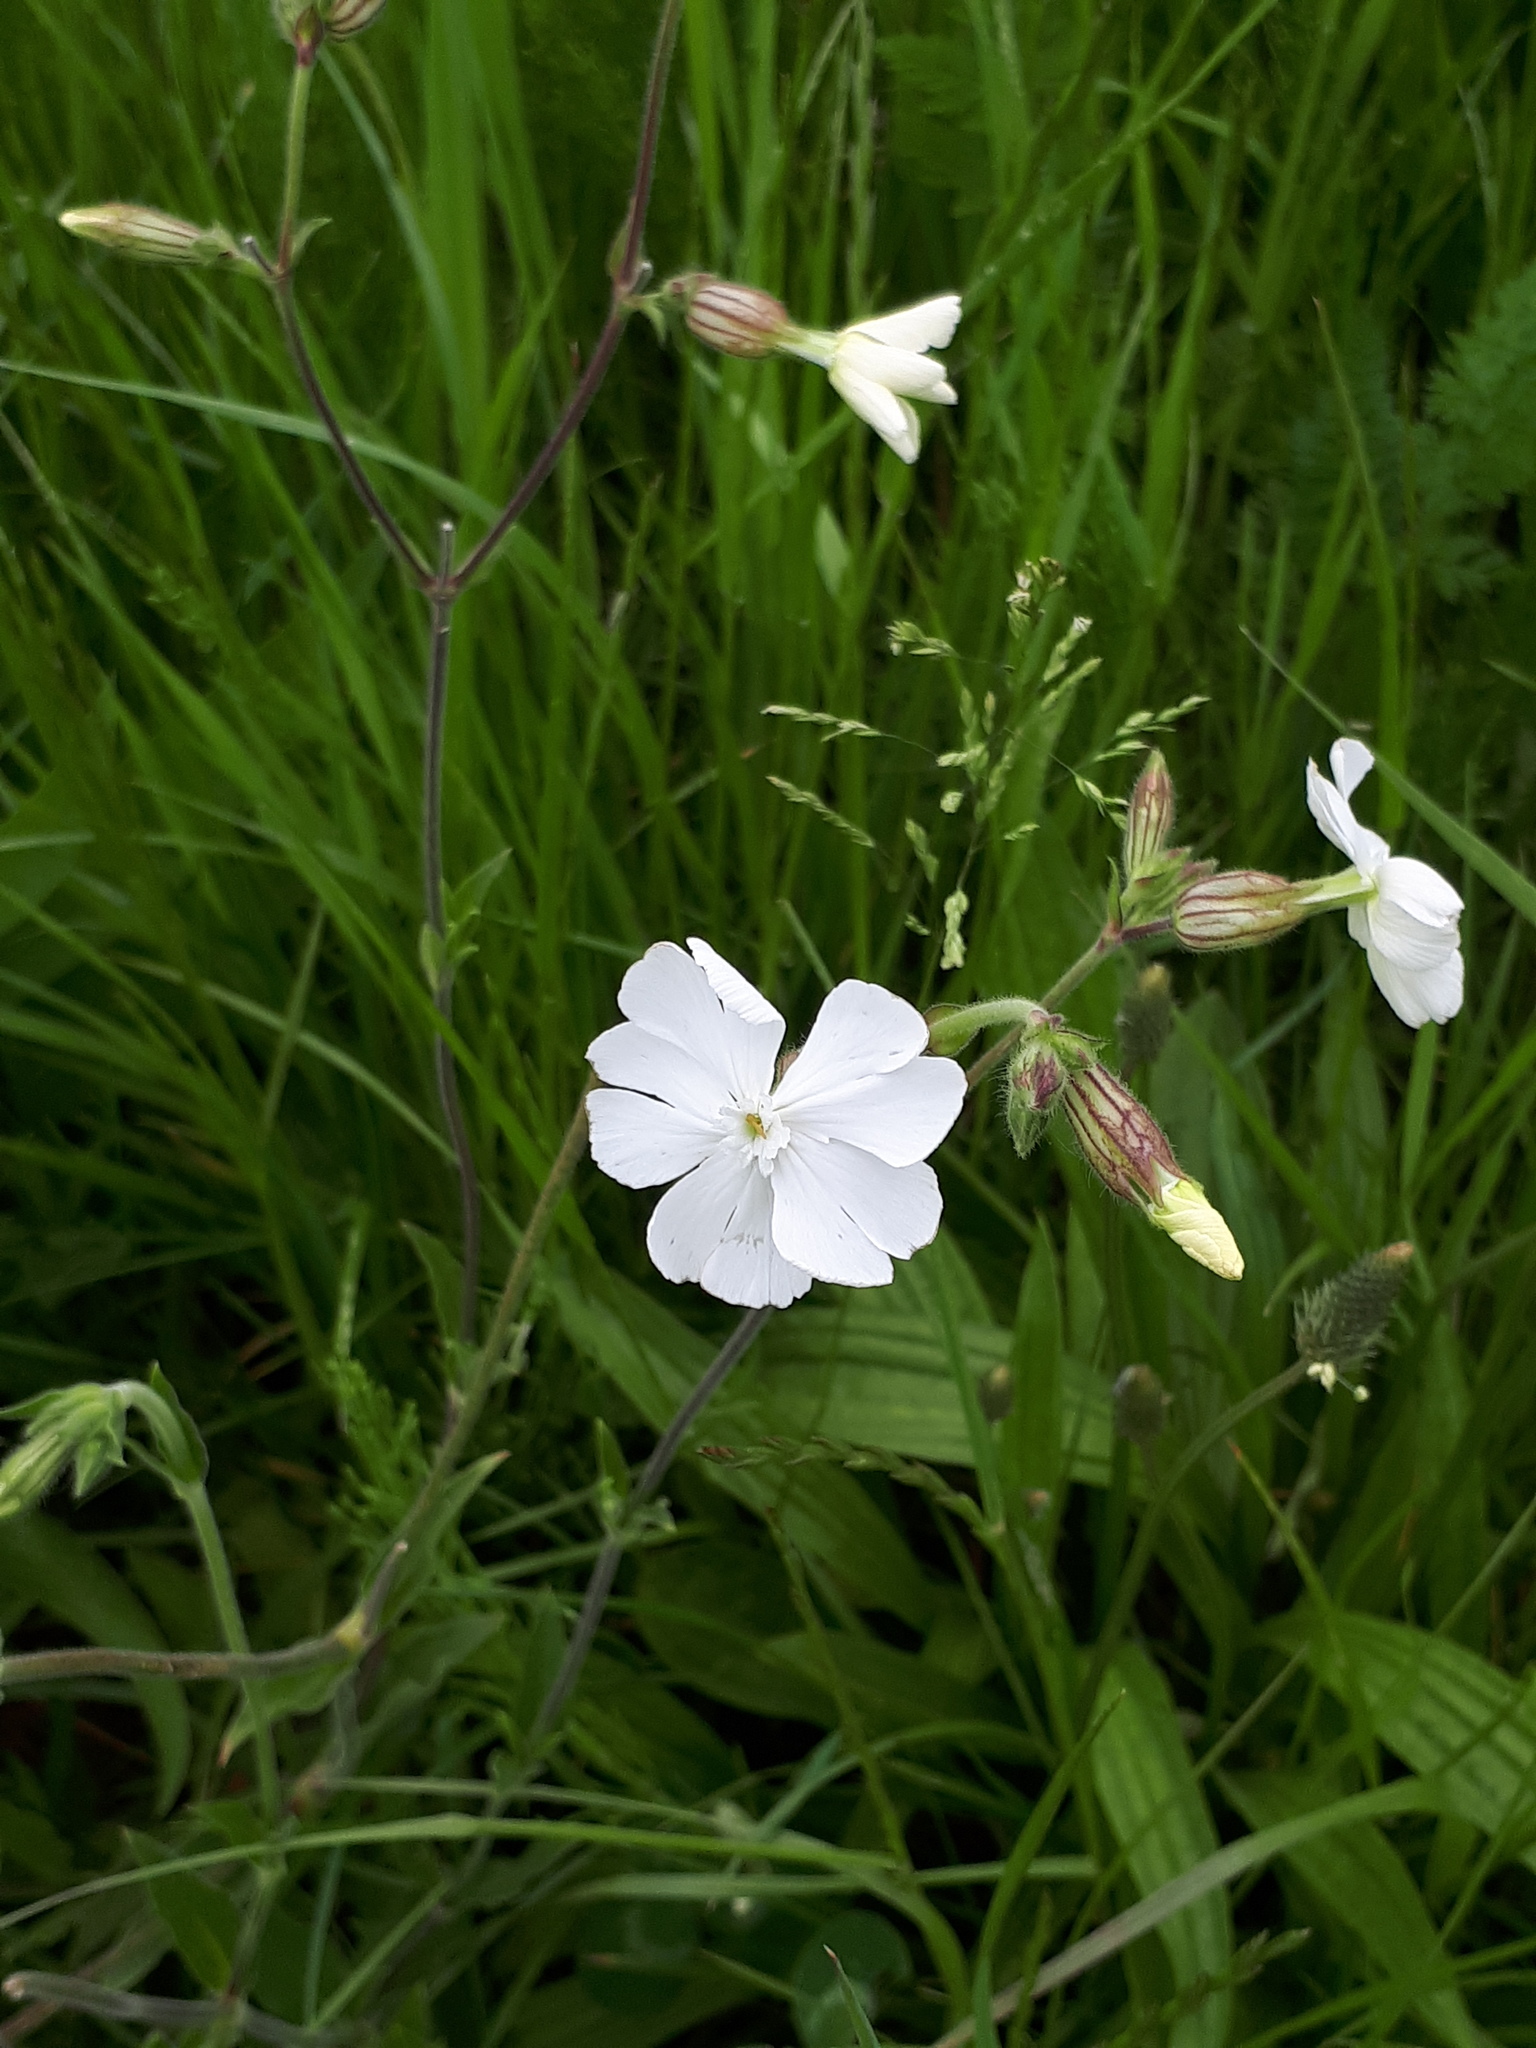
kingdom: Plantae
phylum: Tracheophyta
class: Magnoliopsida
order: Caryophyllales
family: Caryophyllaceae
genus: Silene
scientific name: Silene latifolia
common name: White campion
